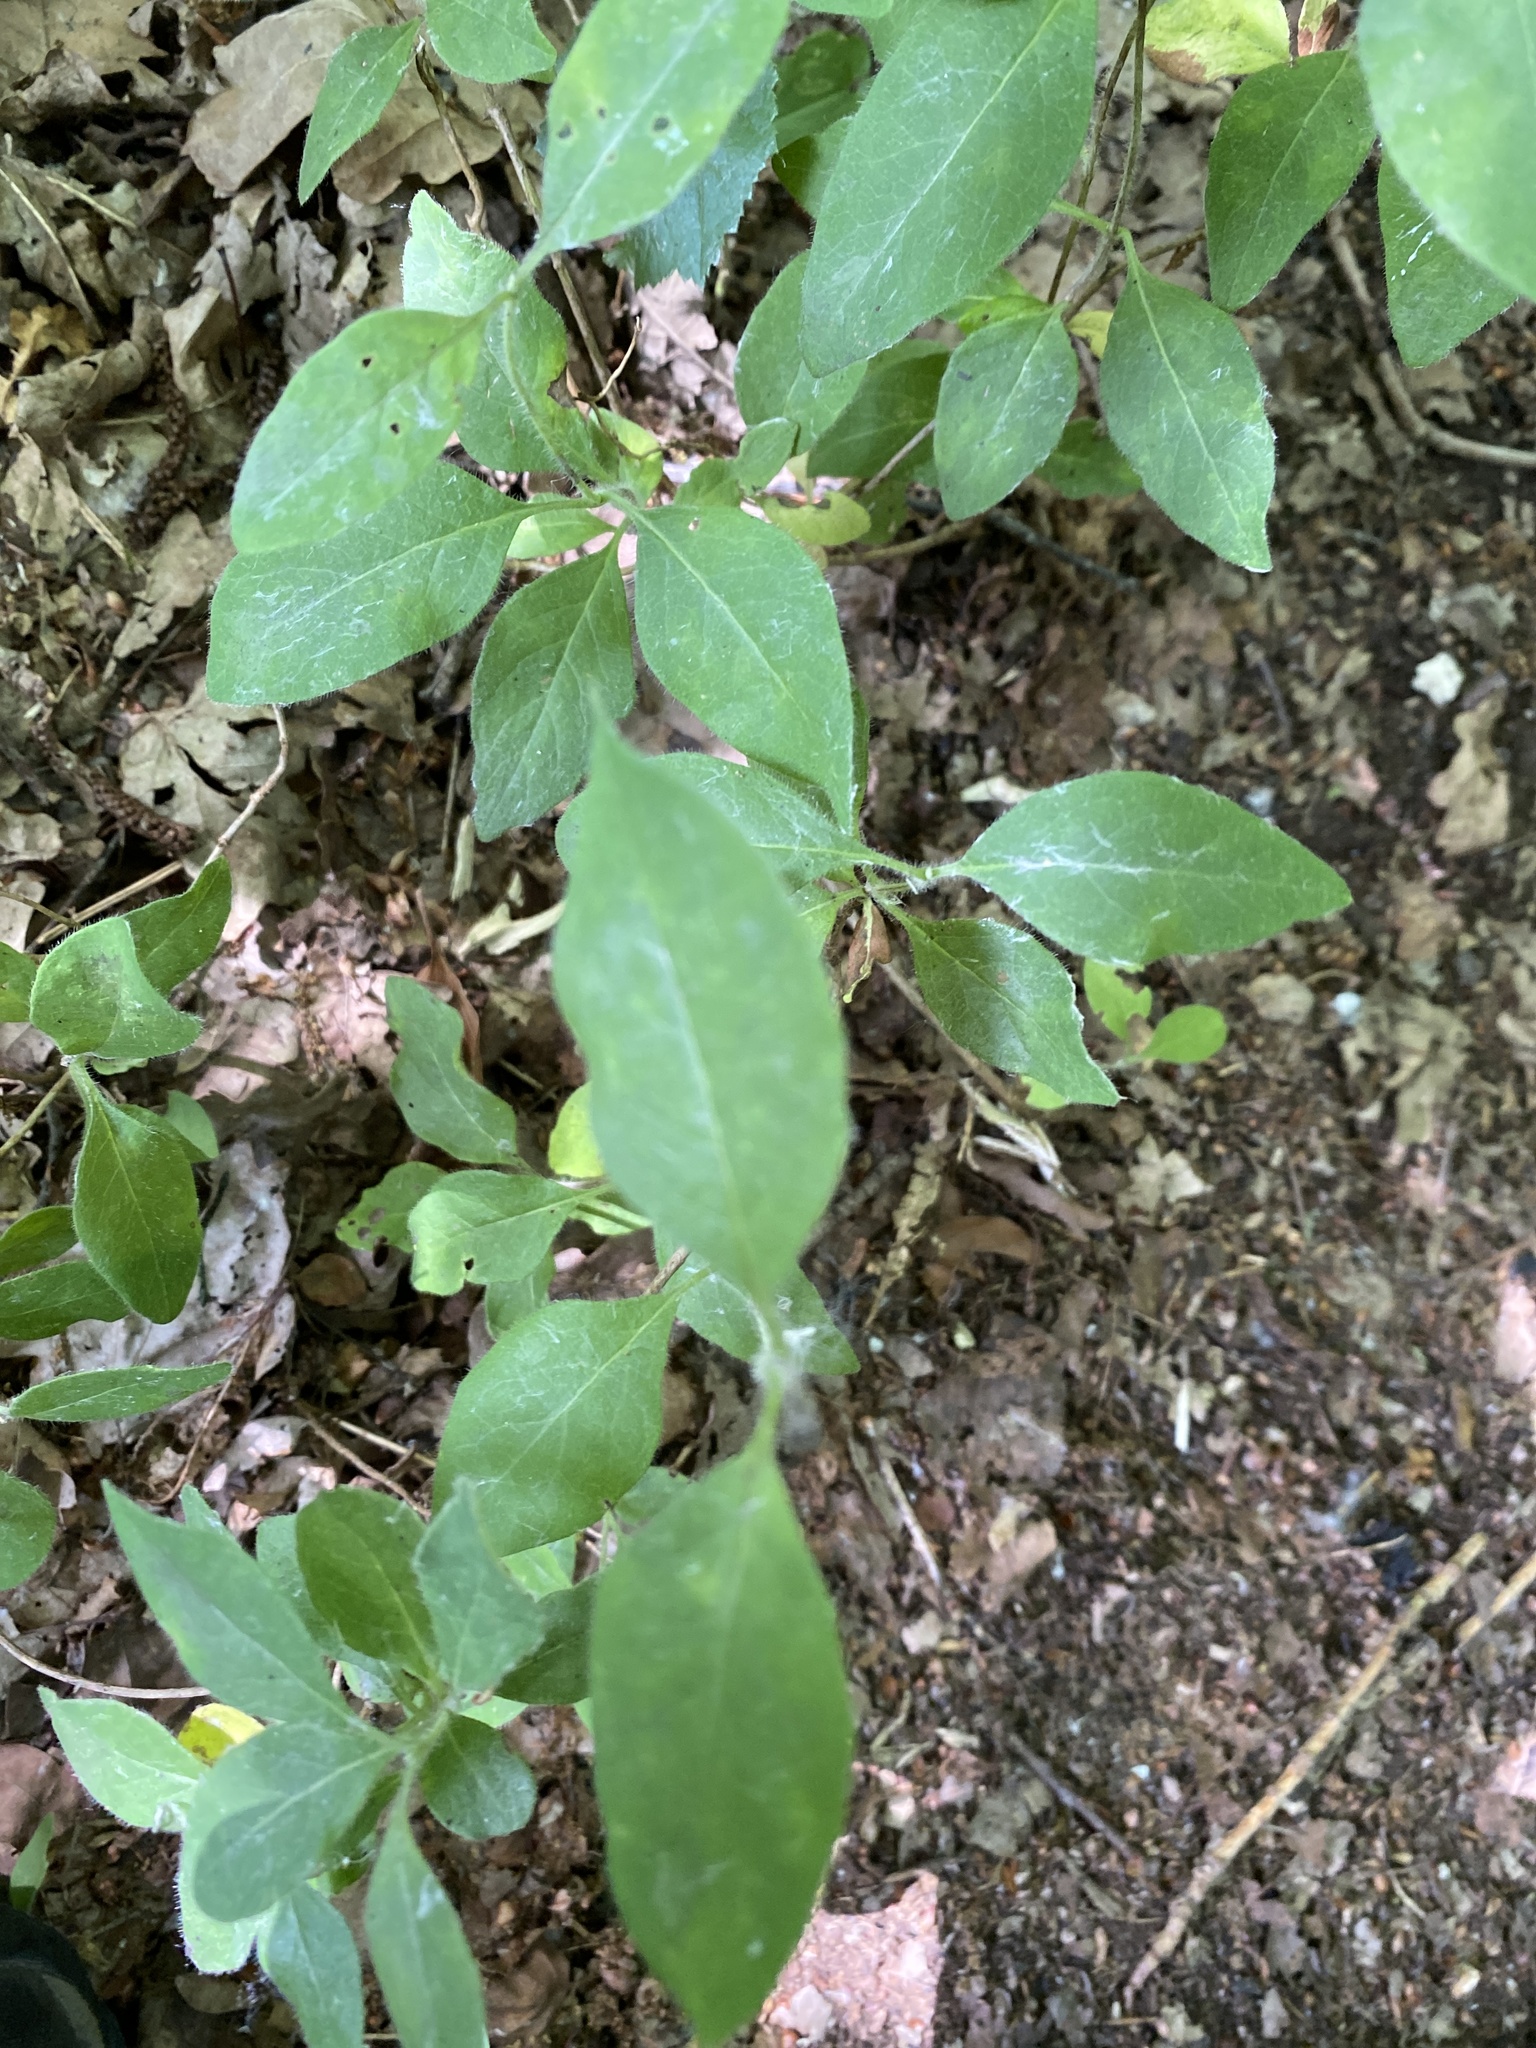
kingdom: Plantae
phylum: Tracheophyta
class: Magnoliopsida
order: Dipsacales
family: Caprifoliaceae
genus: Lonicera
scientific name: Lonicera periclymenum
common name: European honeysuckle
